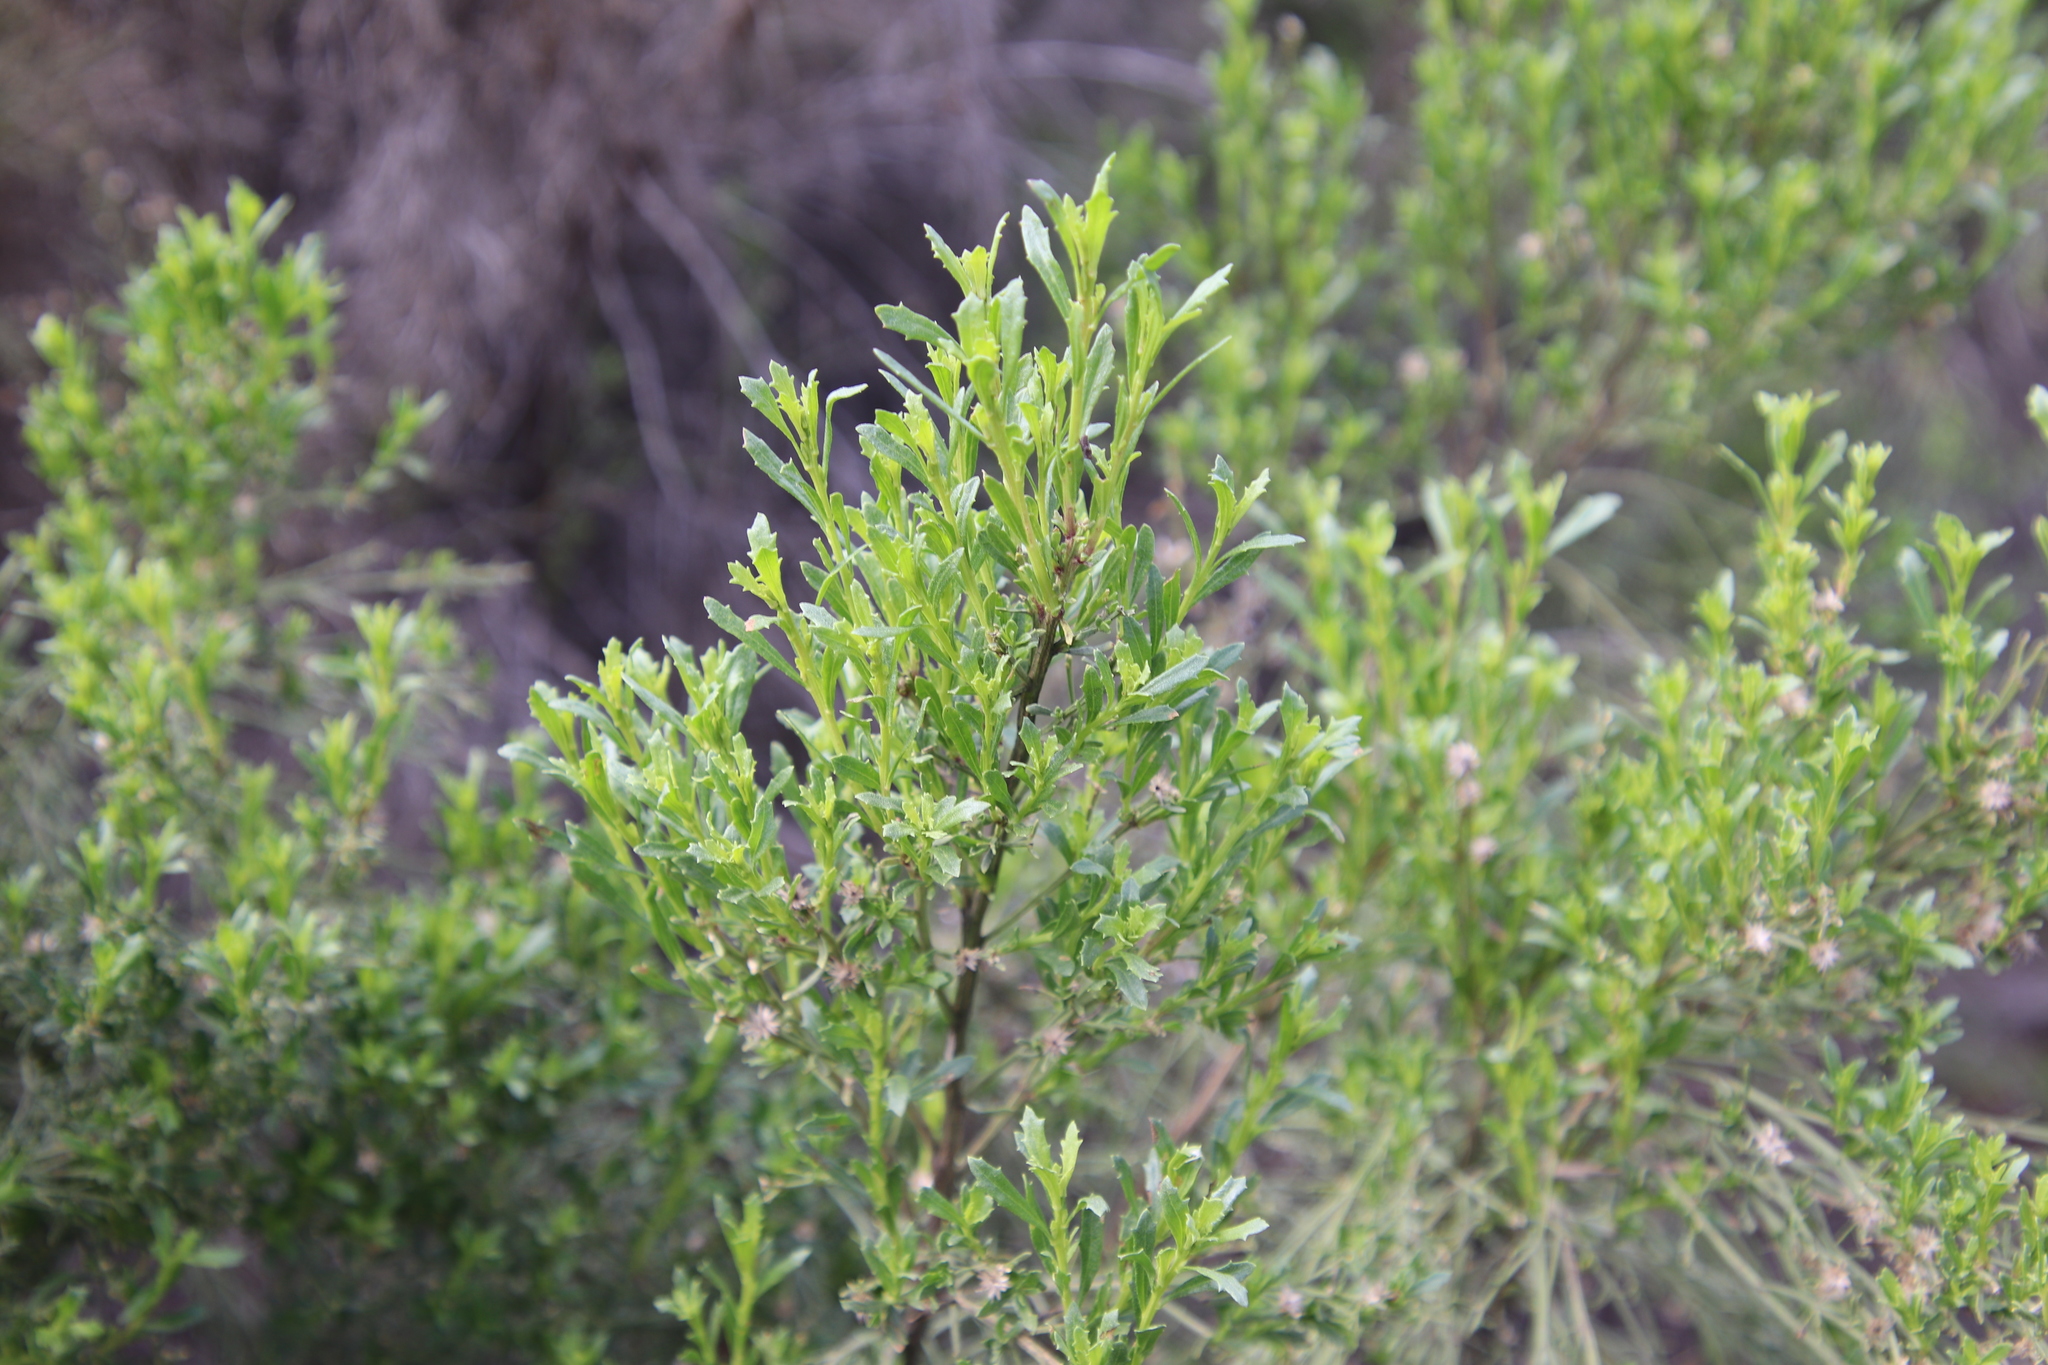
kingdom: Plantae
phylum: Tracheophyta
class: Magnoliopsida
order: Asterales
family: Asteraceae
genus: Baccharis
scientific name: Baccharis pilularis
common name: Coyotebrush
